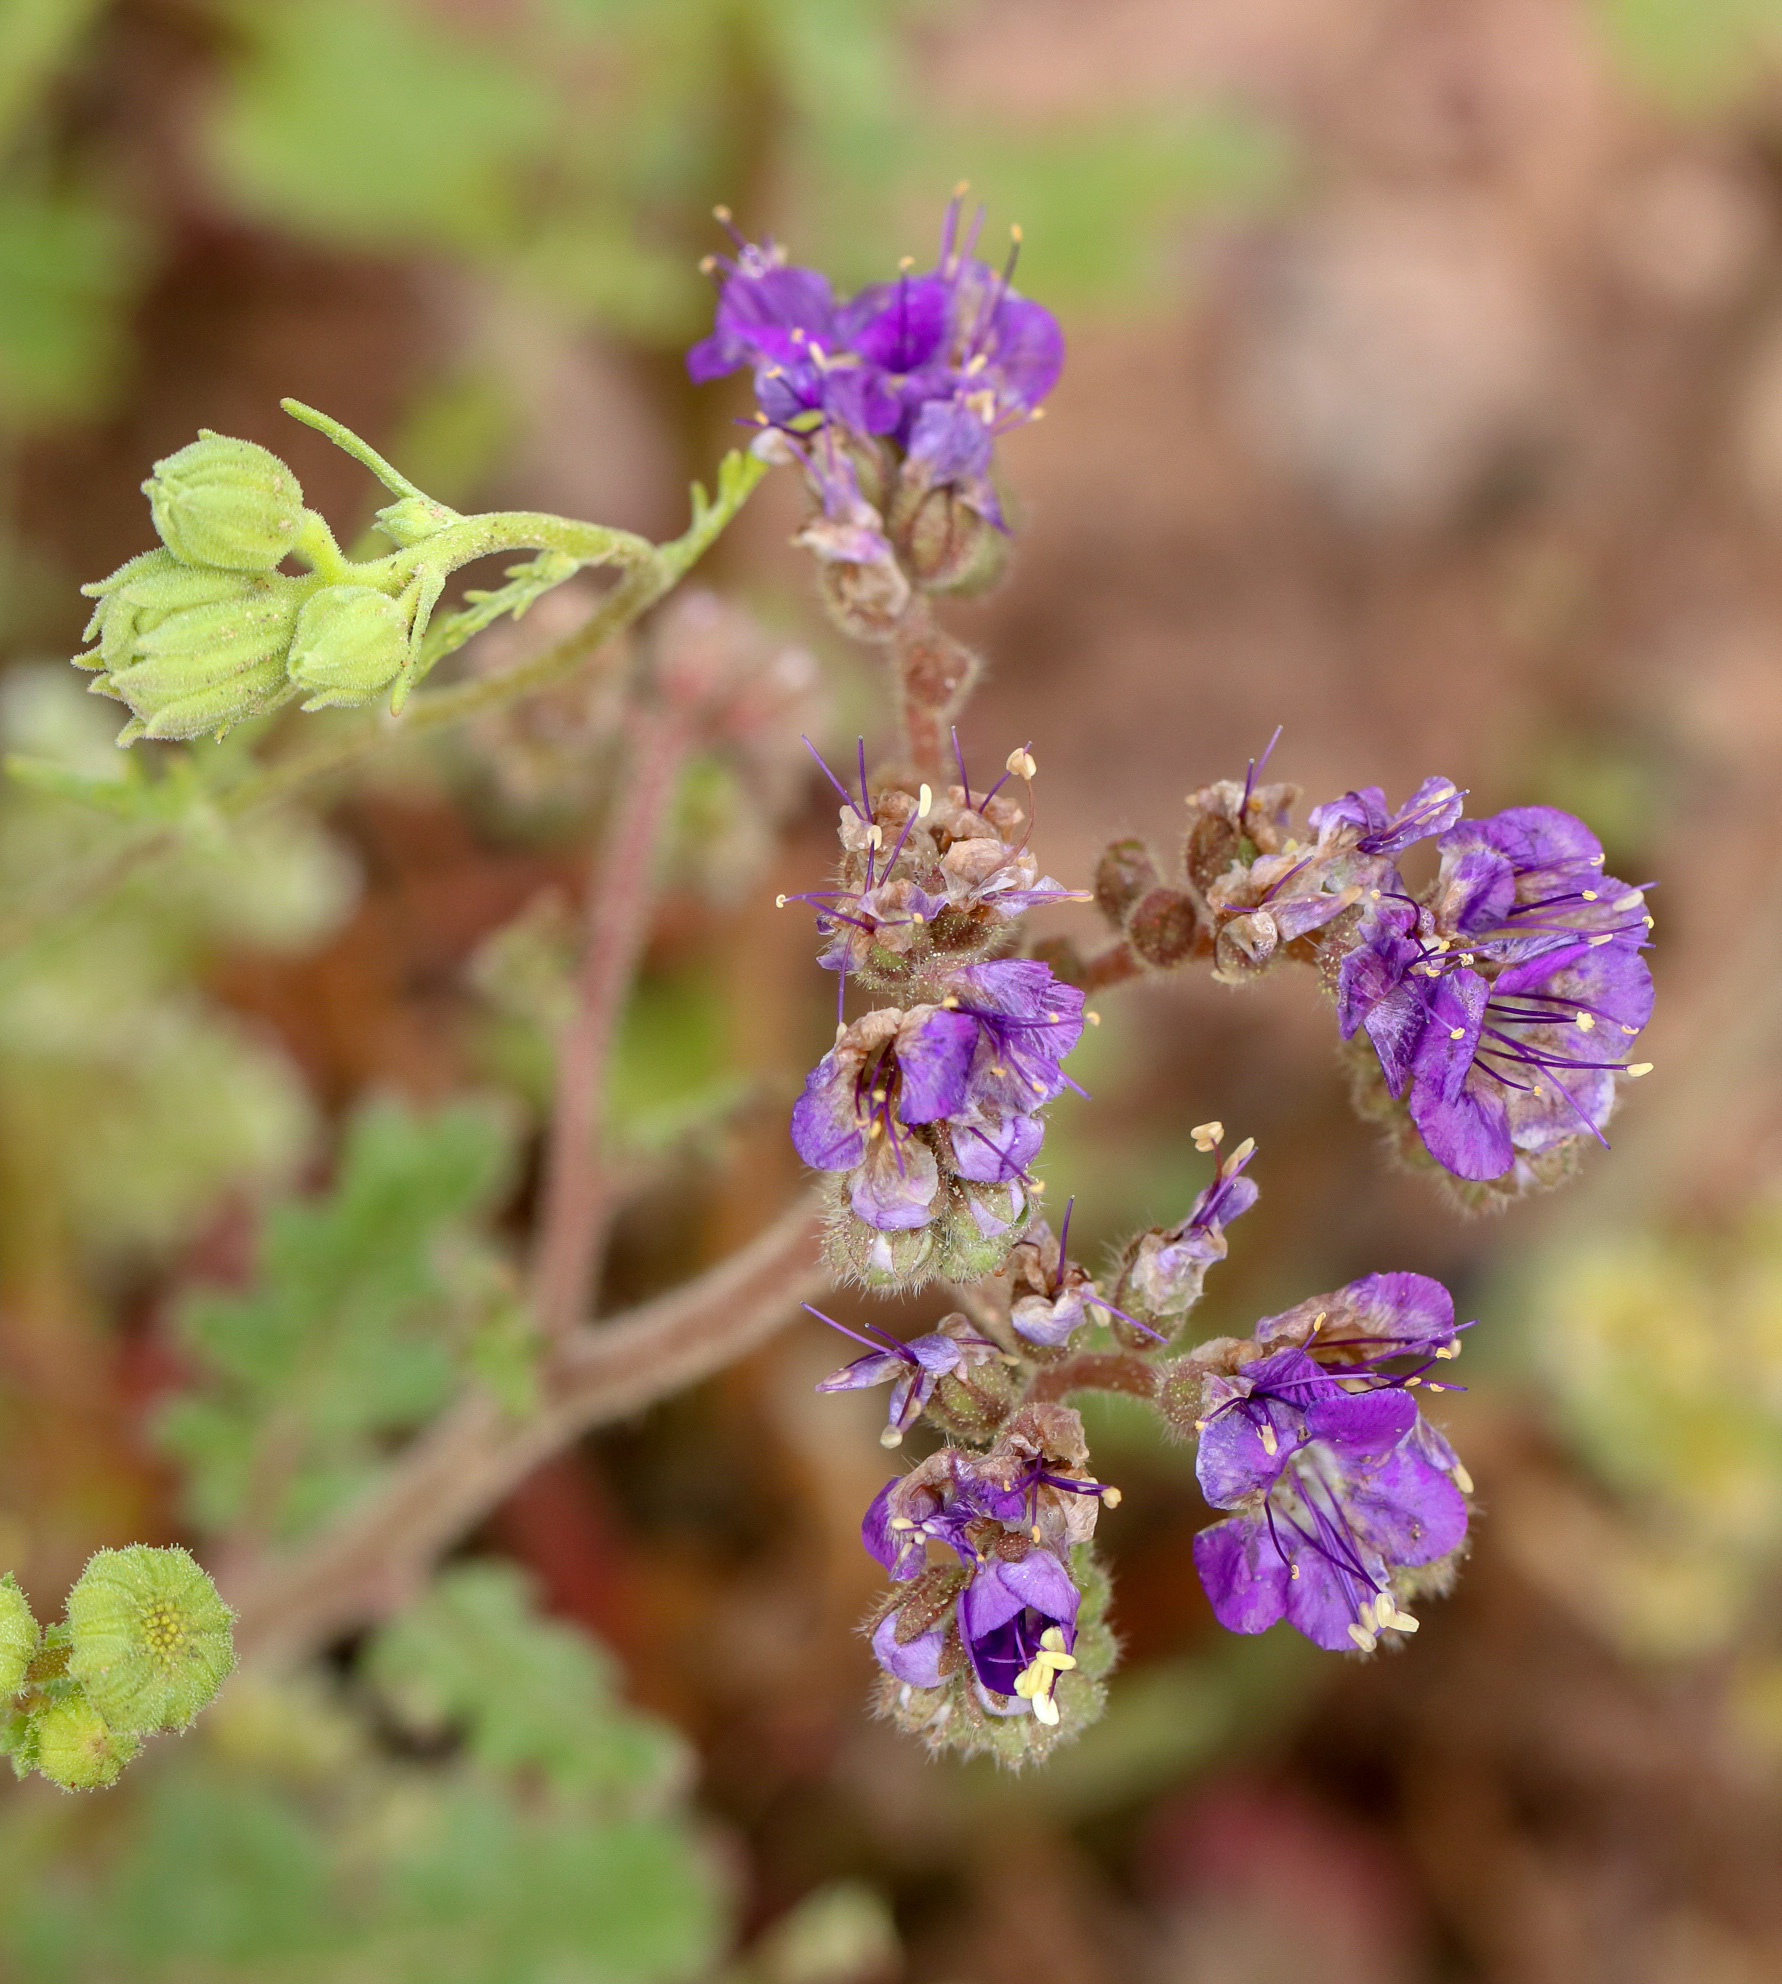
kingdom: Plantae
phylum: Tracheophyta
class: Magnoliopsida
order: Boraginales
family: Hydrophyllaceae
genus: Phacelia
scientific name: Phacelia crenulata
